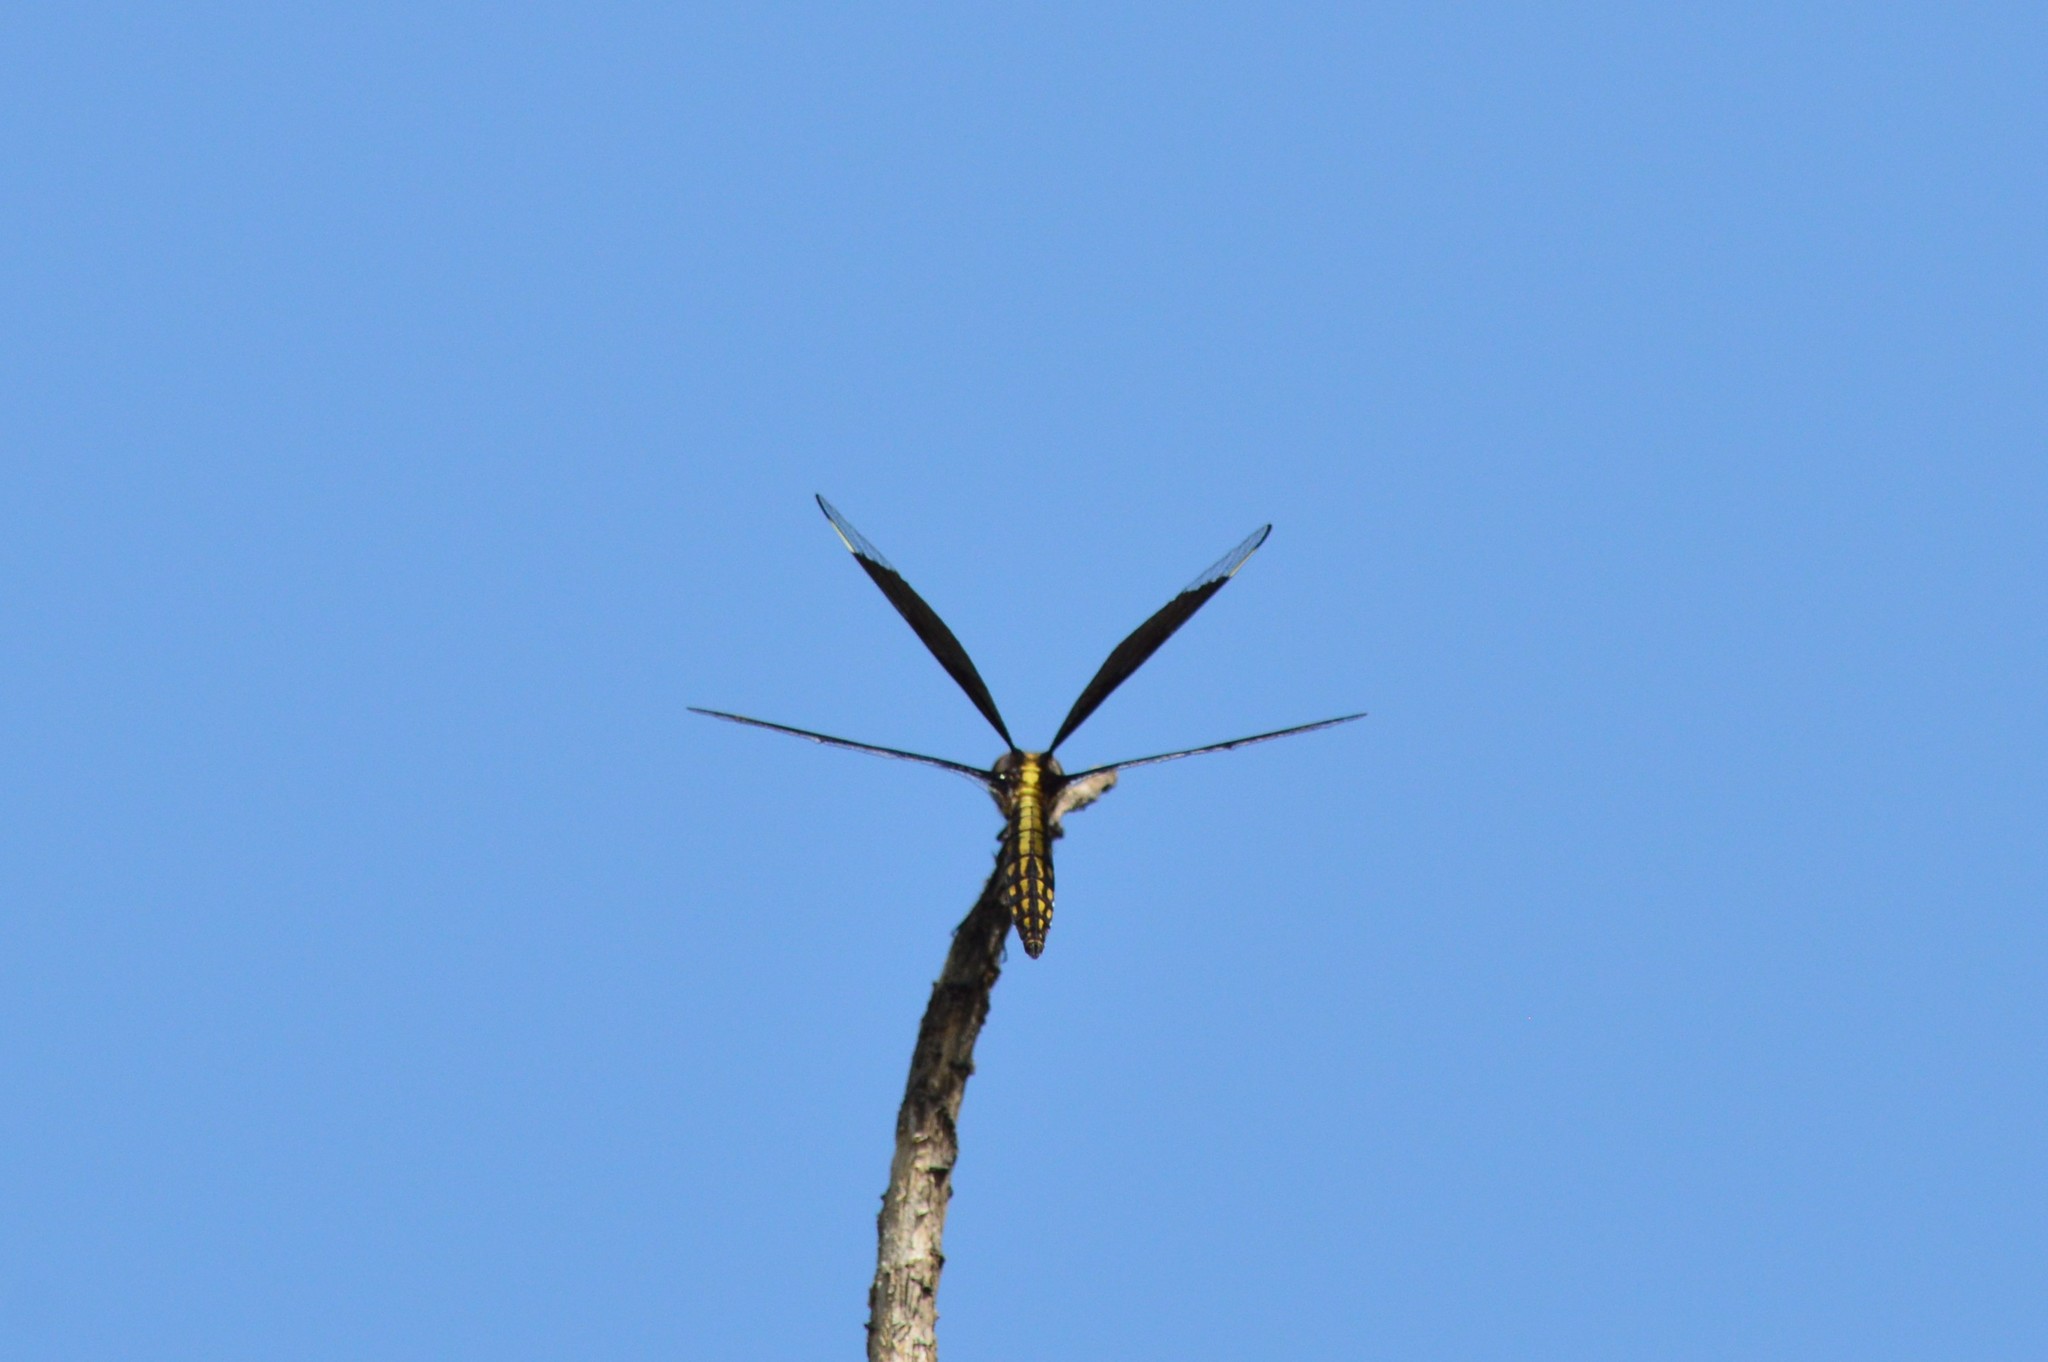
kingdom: Animalia
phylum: Arthropoda
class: Insecta
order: Odonata
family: Libellulidae
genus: Palpopleura
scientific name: Palpopleura lucia
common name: Lucia widow
